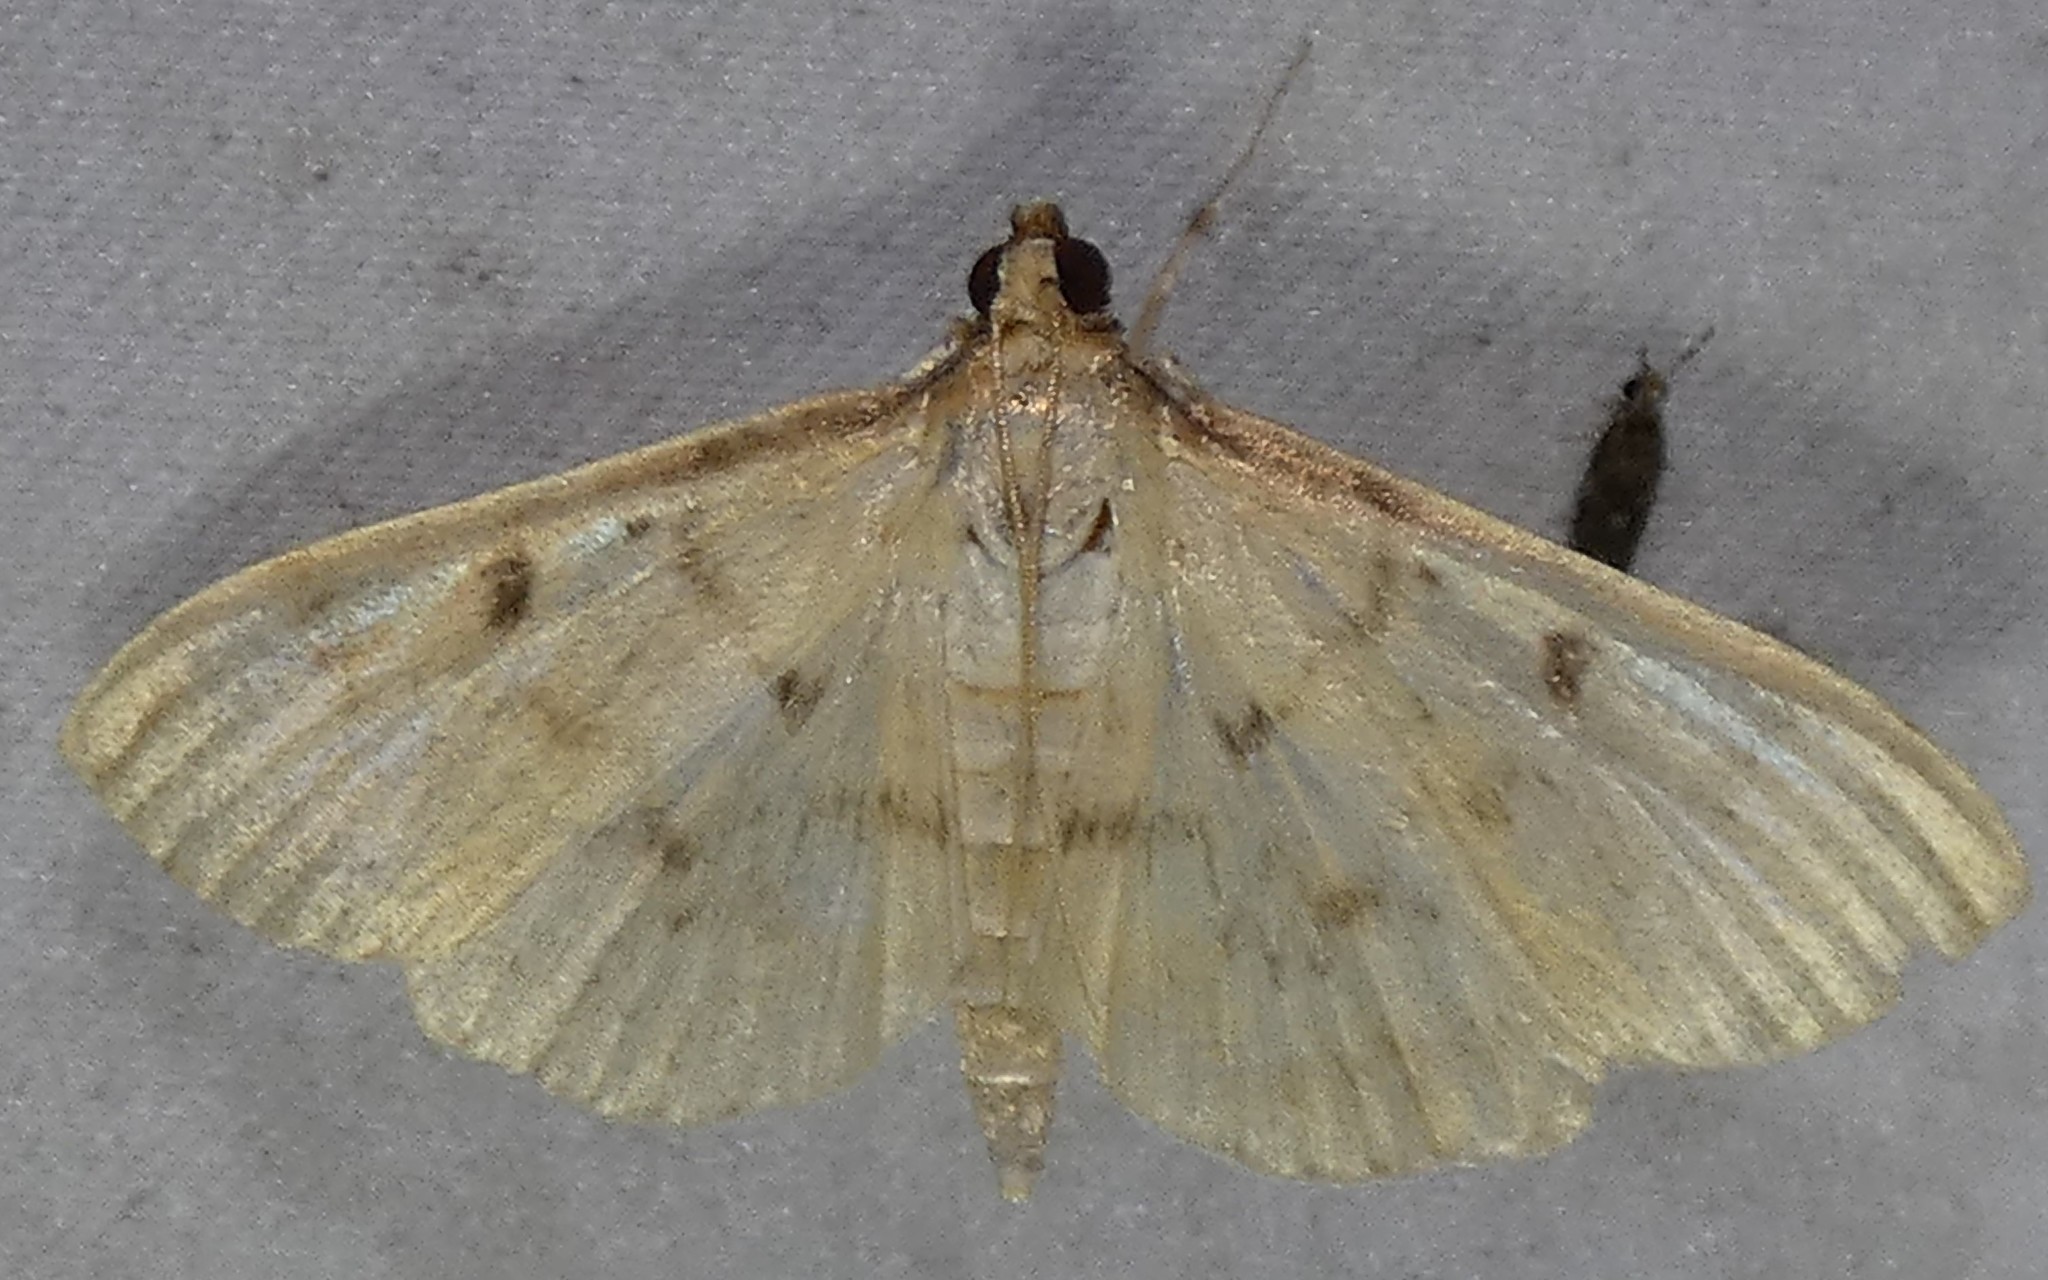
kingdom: Animalia
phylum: Arthropoda
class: Insecta
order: Lepidoptera
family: Crambidae
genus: Herpetogramma
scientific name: Herpetogramma fluctuosalis
